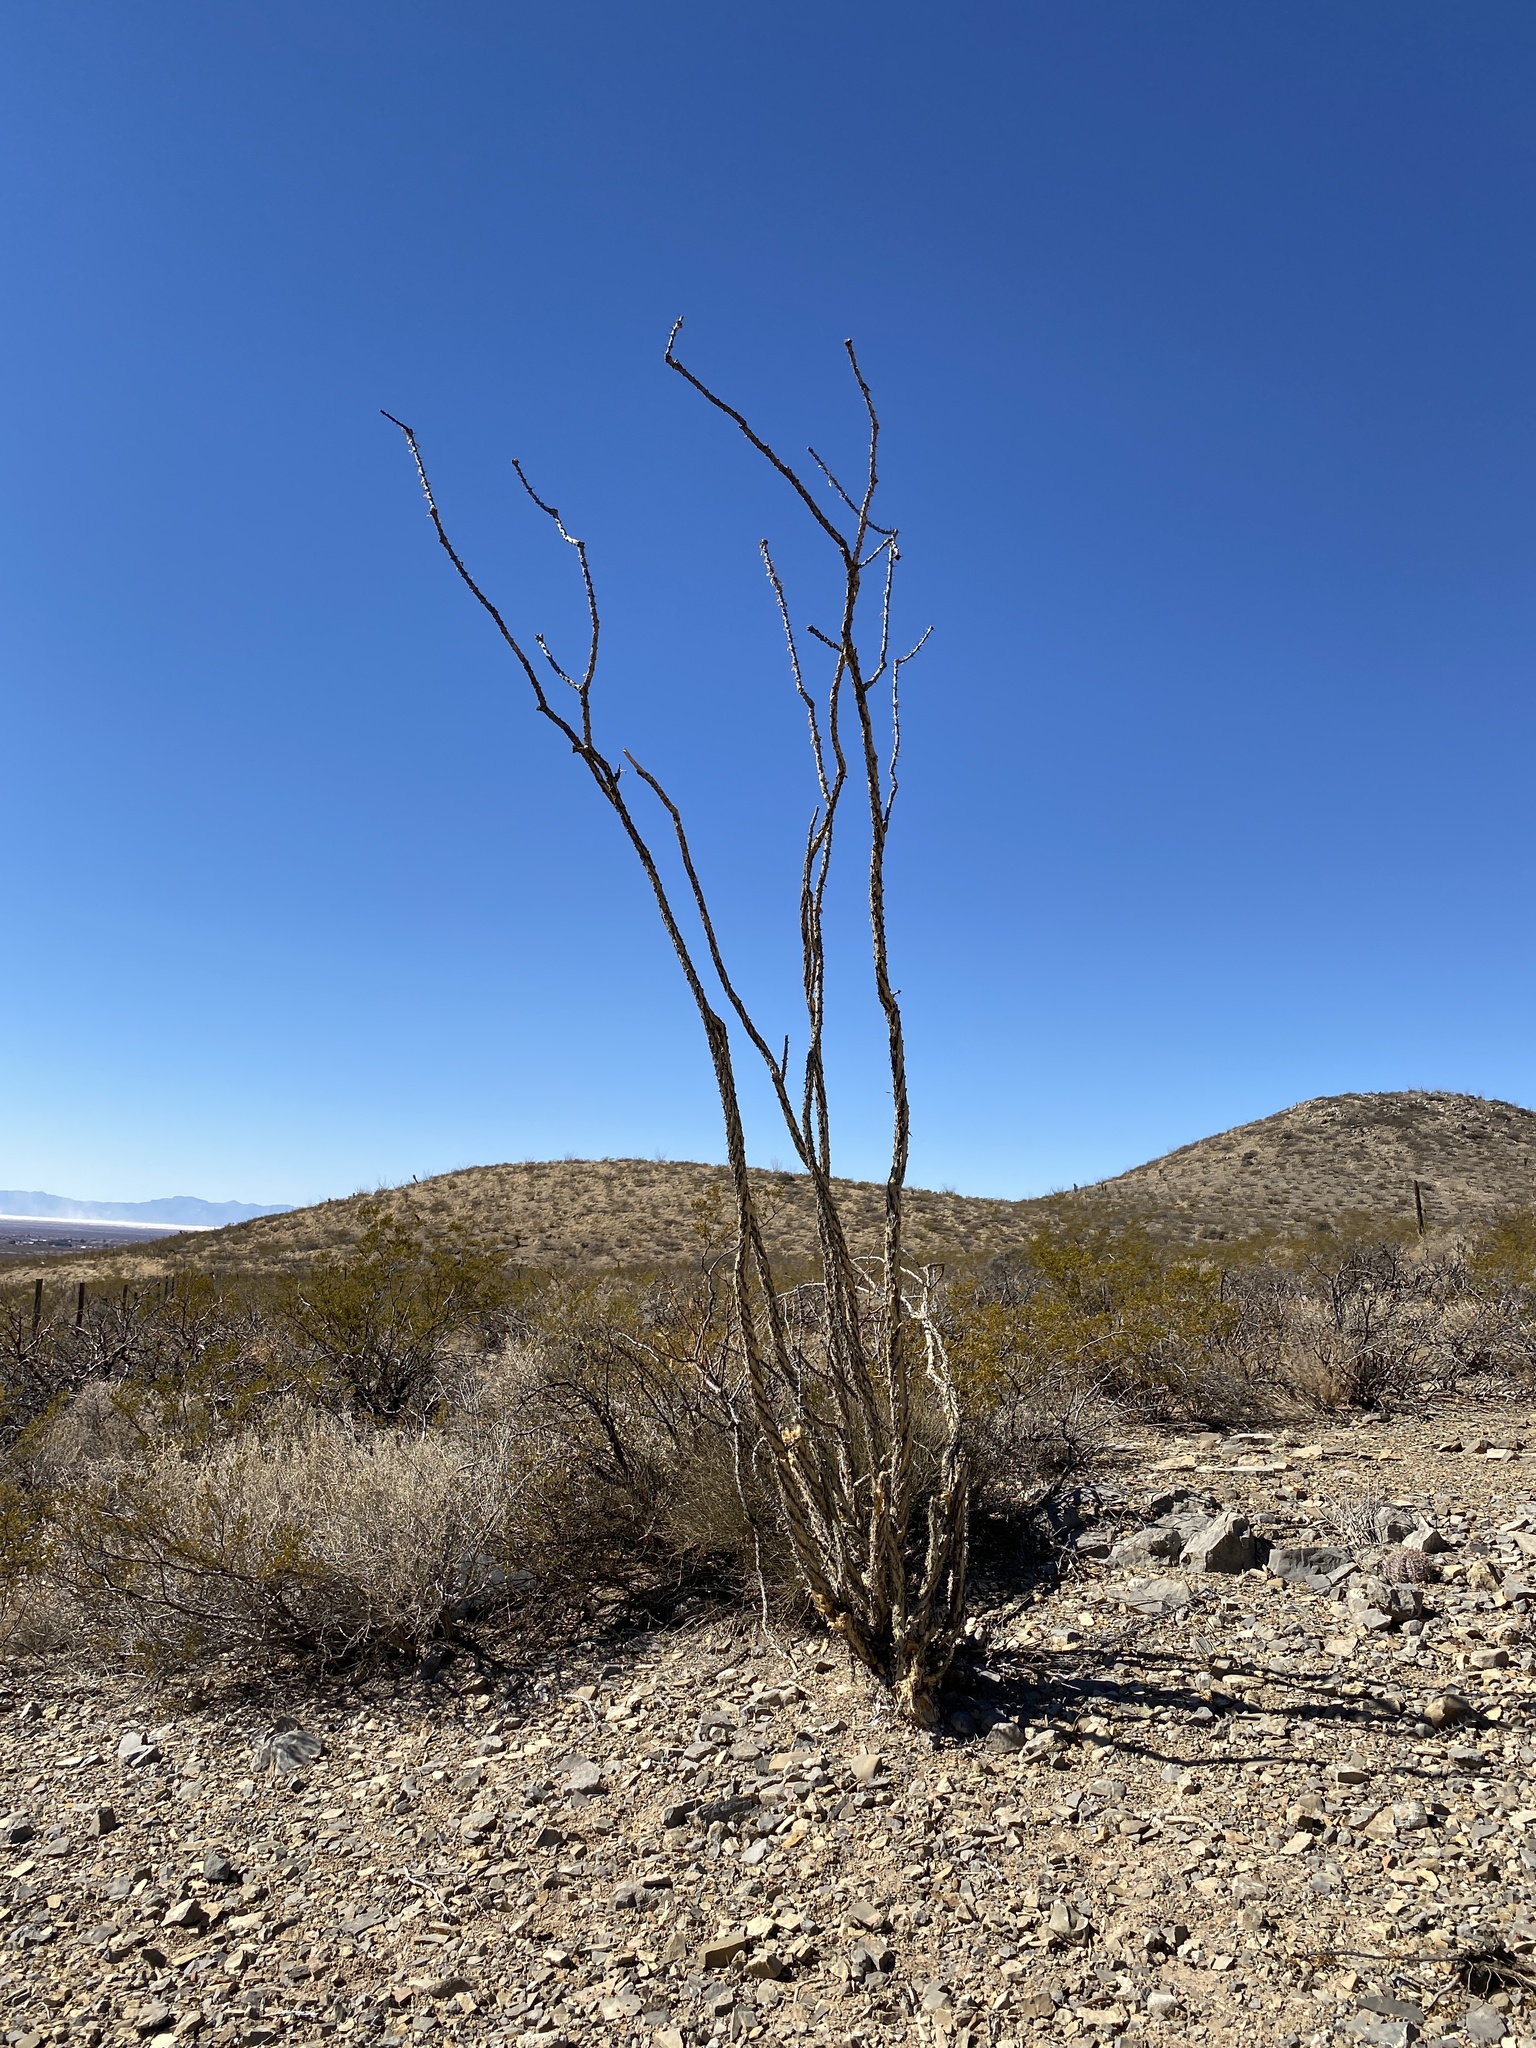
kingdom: Plantae
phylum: Tracheophyta
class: Magnoliopsida
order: Ericales
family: Fouquieriaceae
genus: Fouquieria
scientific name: Fouquieria splendens
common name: Vine-cactus
